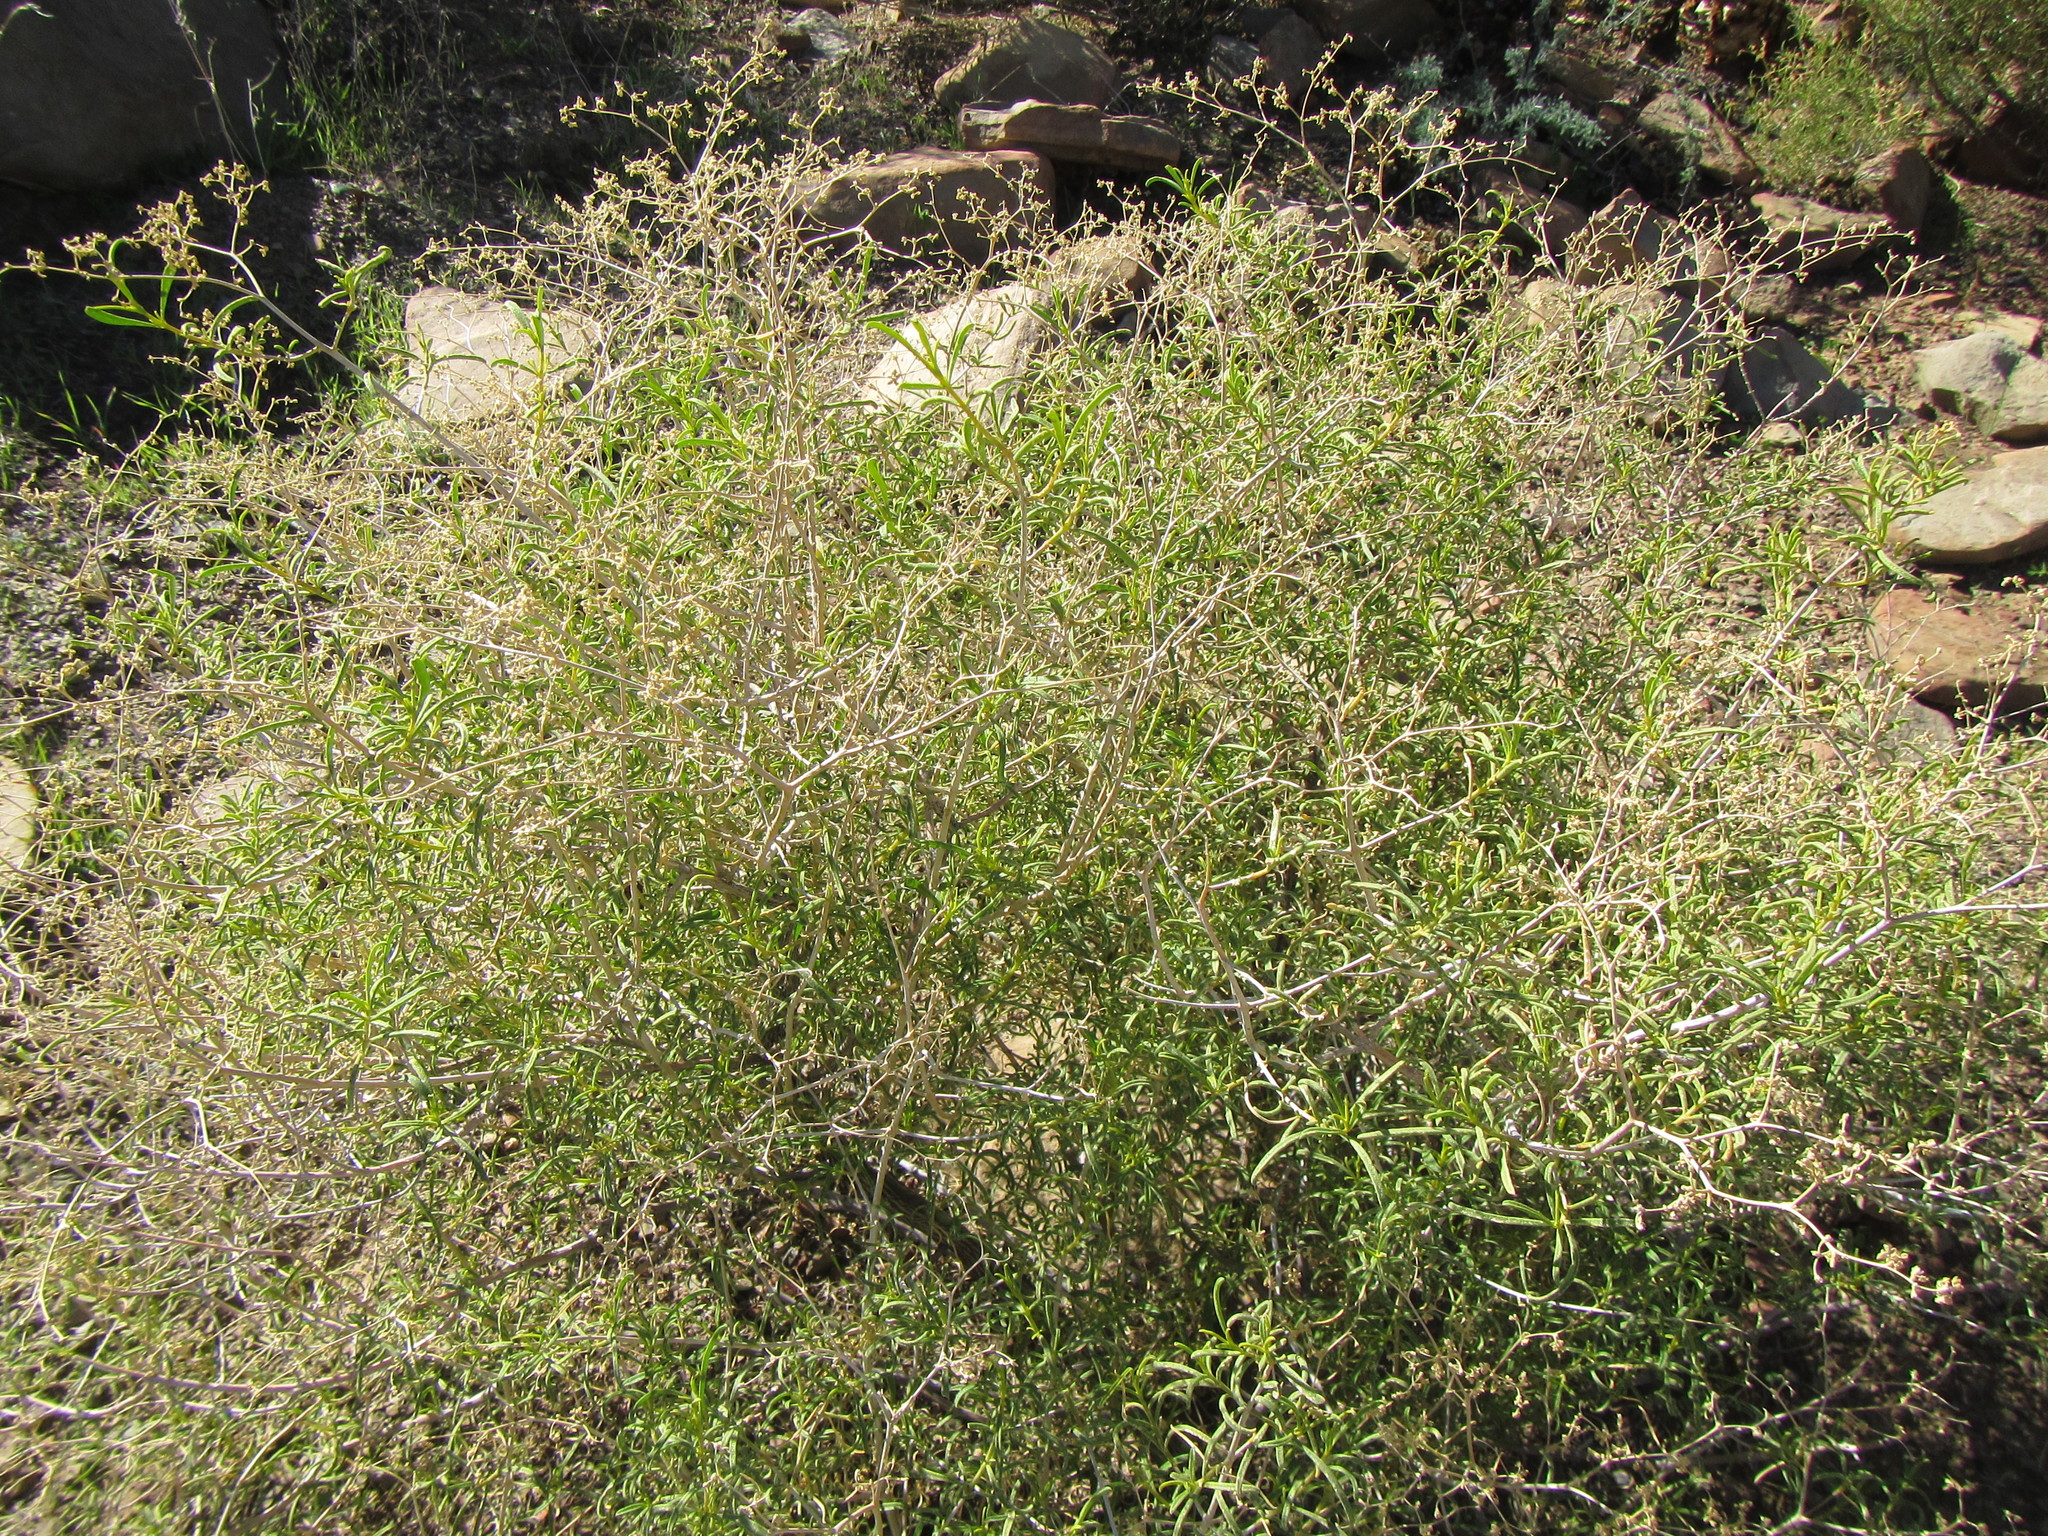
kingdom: Plantae
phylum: Tracheophyta
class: Magnoliopsida
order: Caryophyllales
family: Aizoaceae
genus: Aizoon
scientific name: Aizoon africanum
